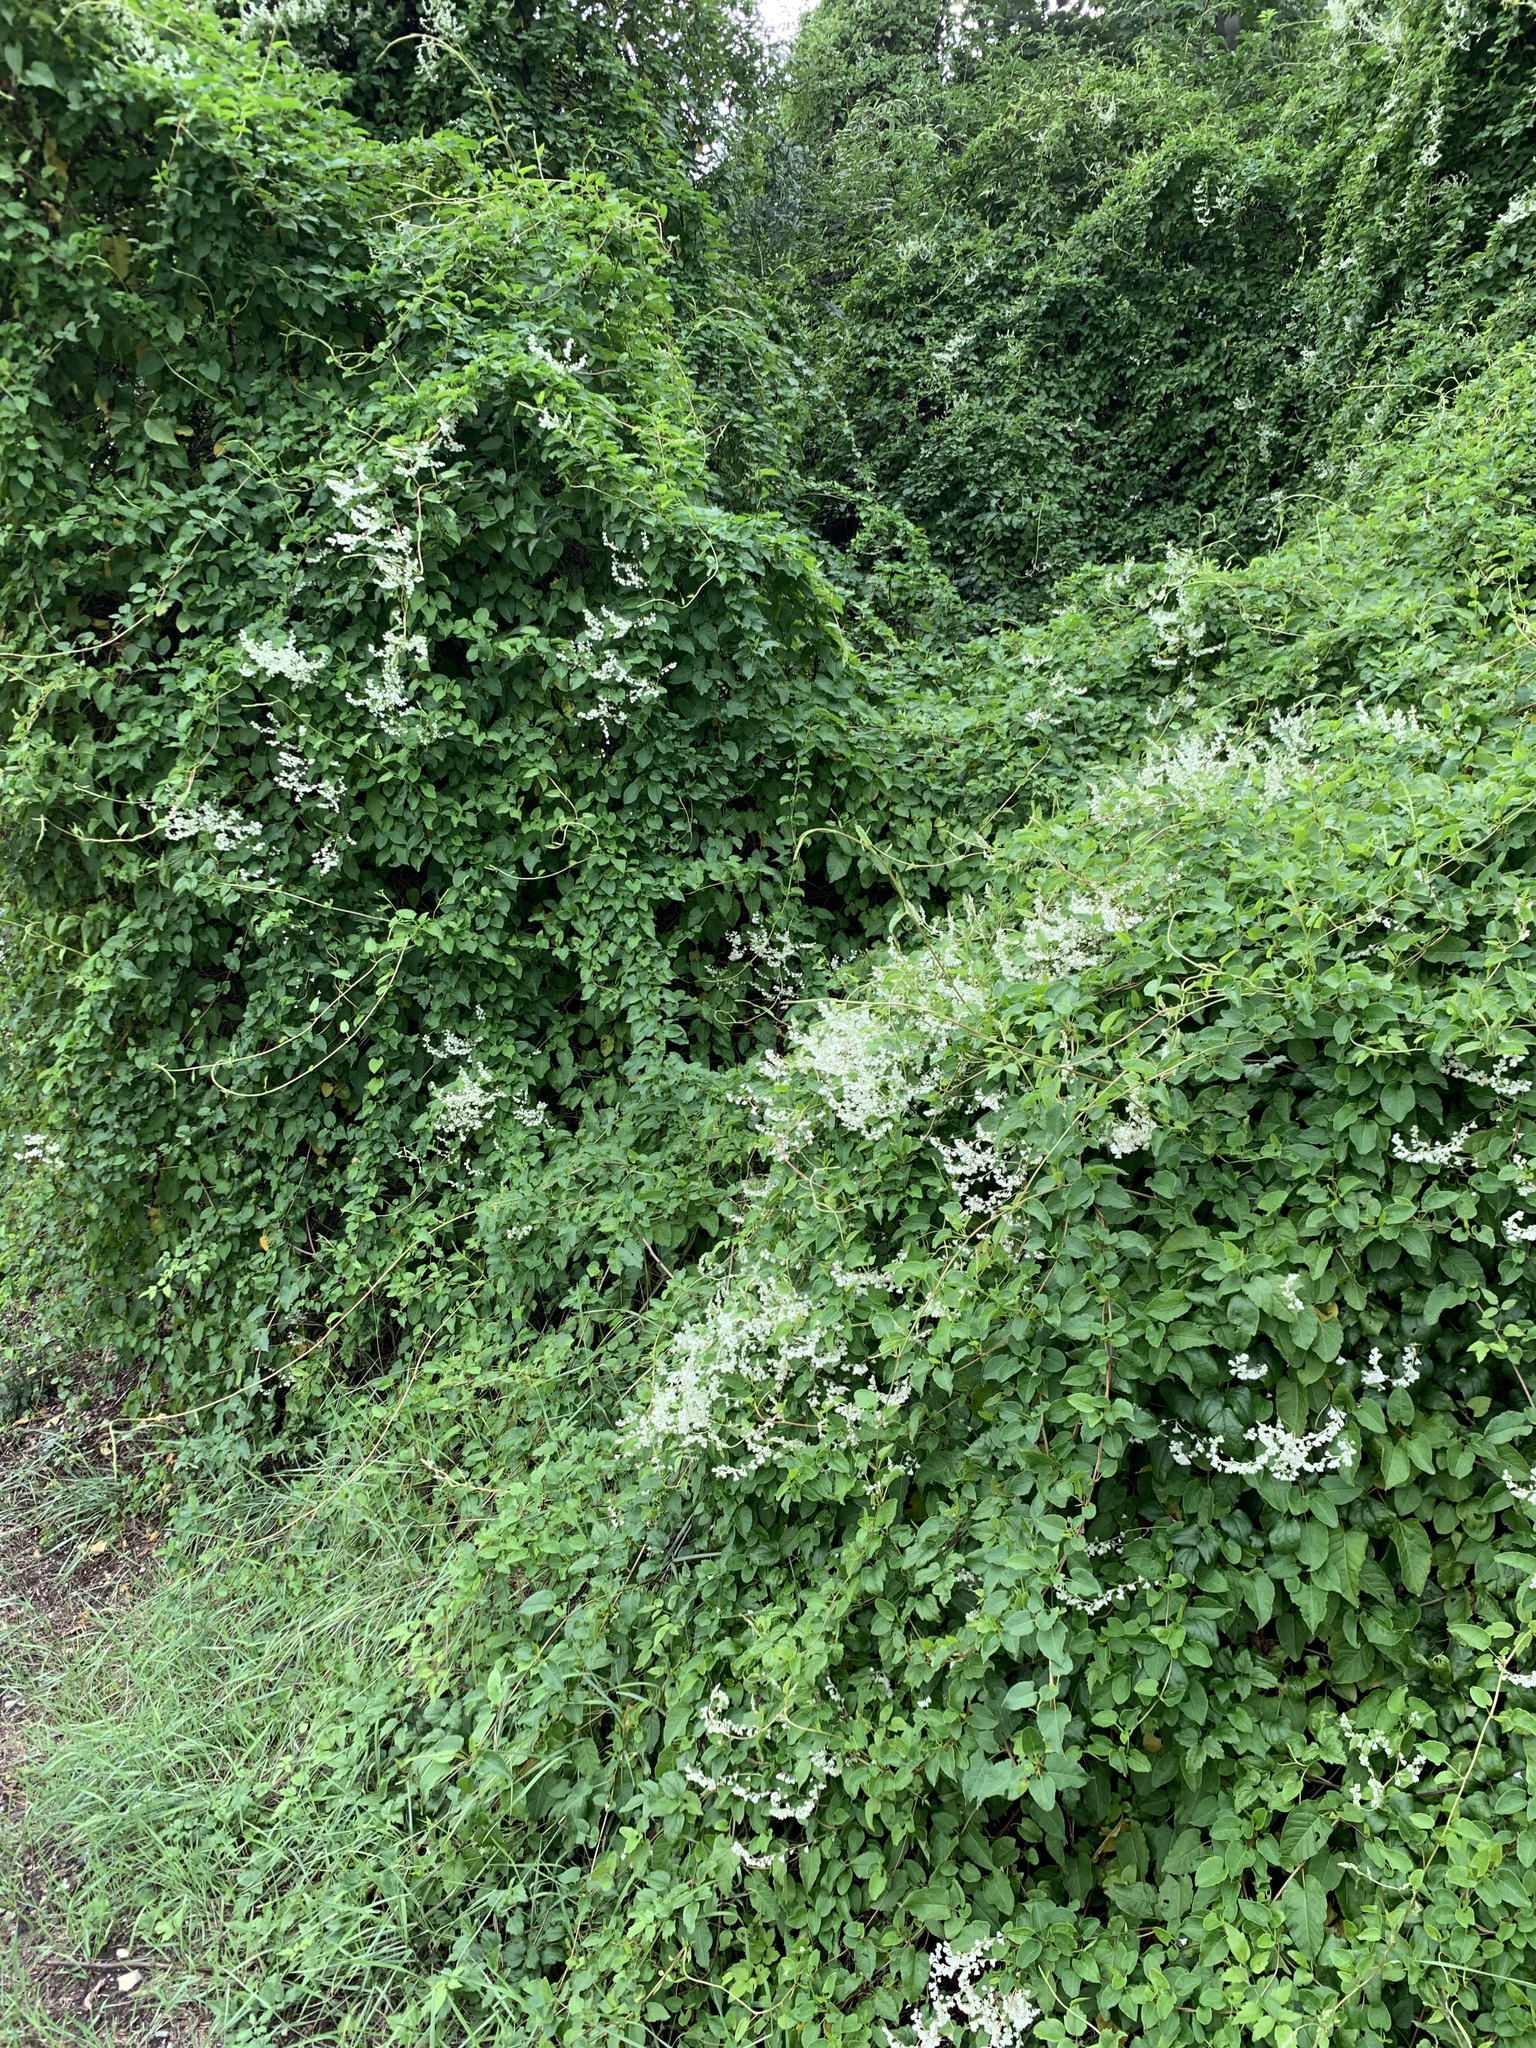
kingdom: Plantae
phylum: Tracheophyta
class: Magnoliopsida
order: Caryophyllales
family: Polygonaceae
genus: Fallopia
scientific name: Fallopia baldschuanica
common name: Russian-vine
